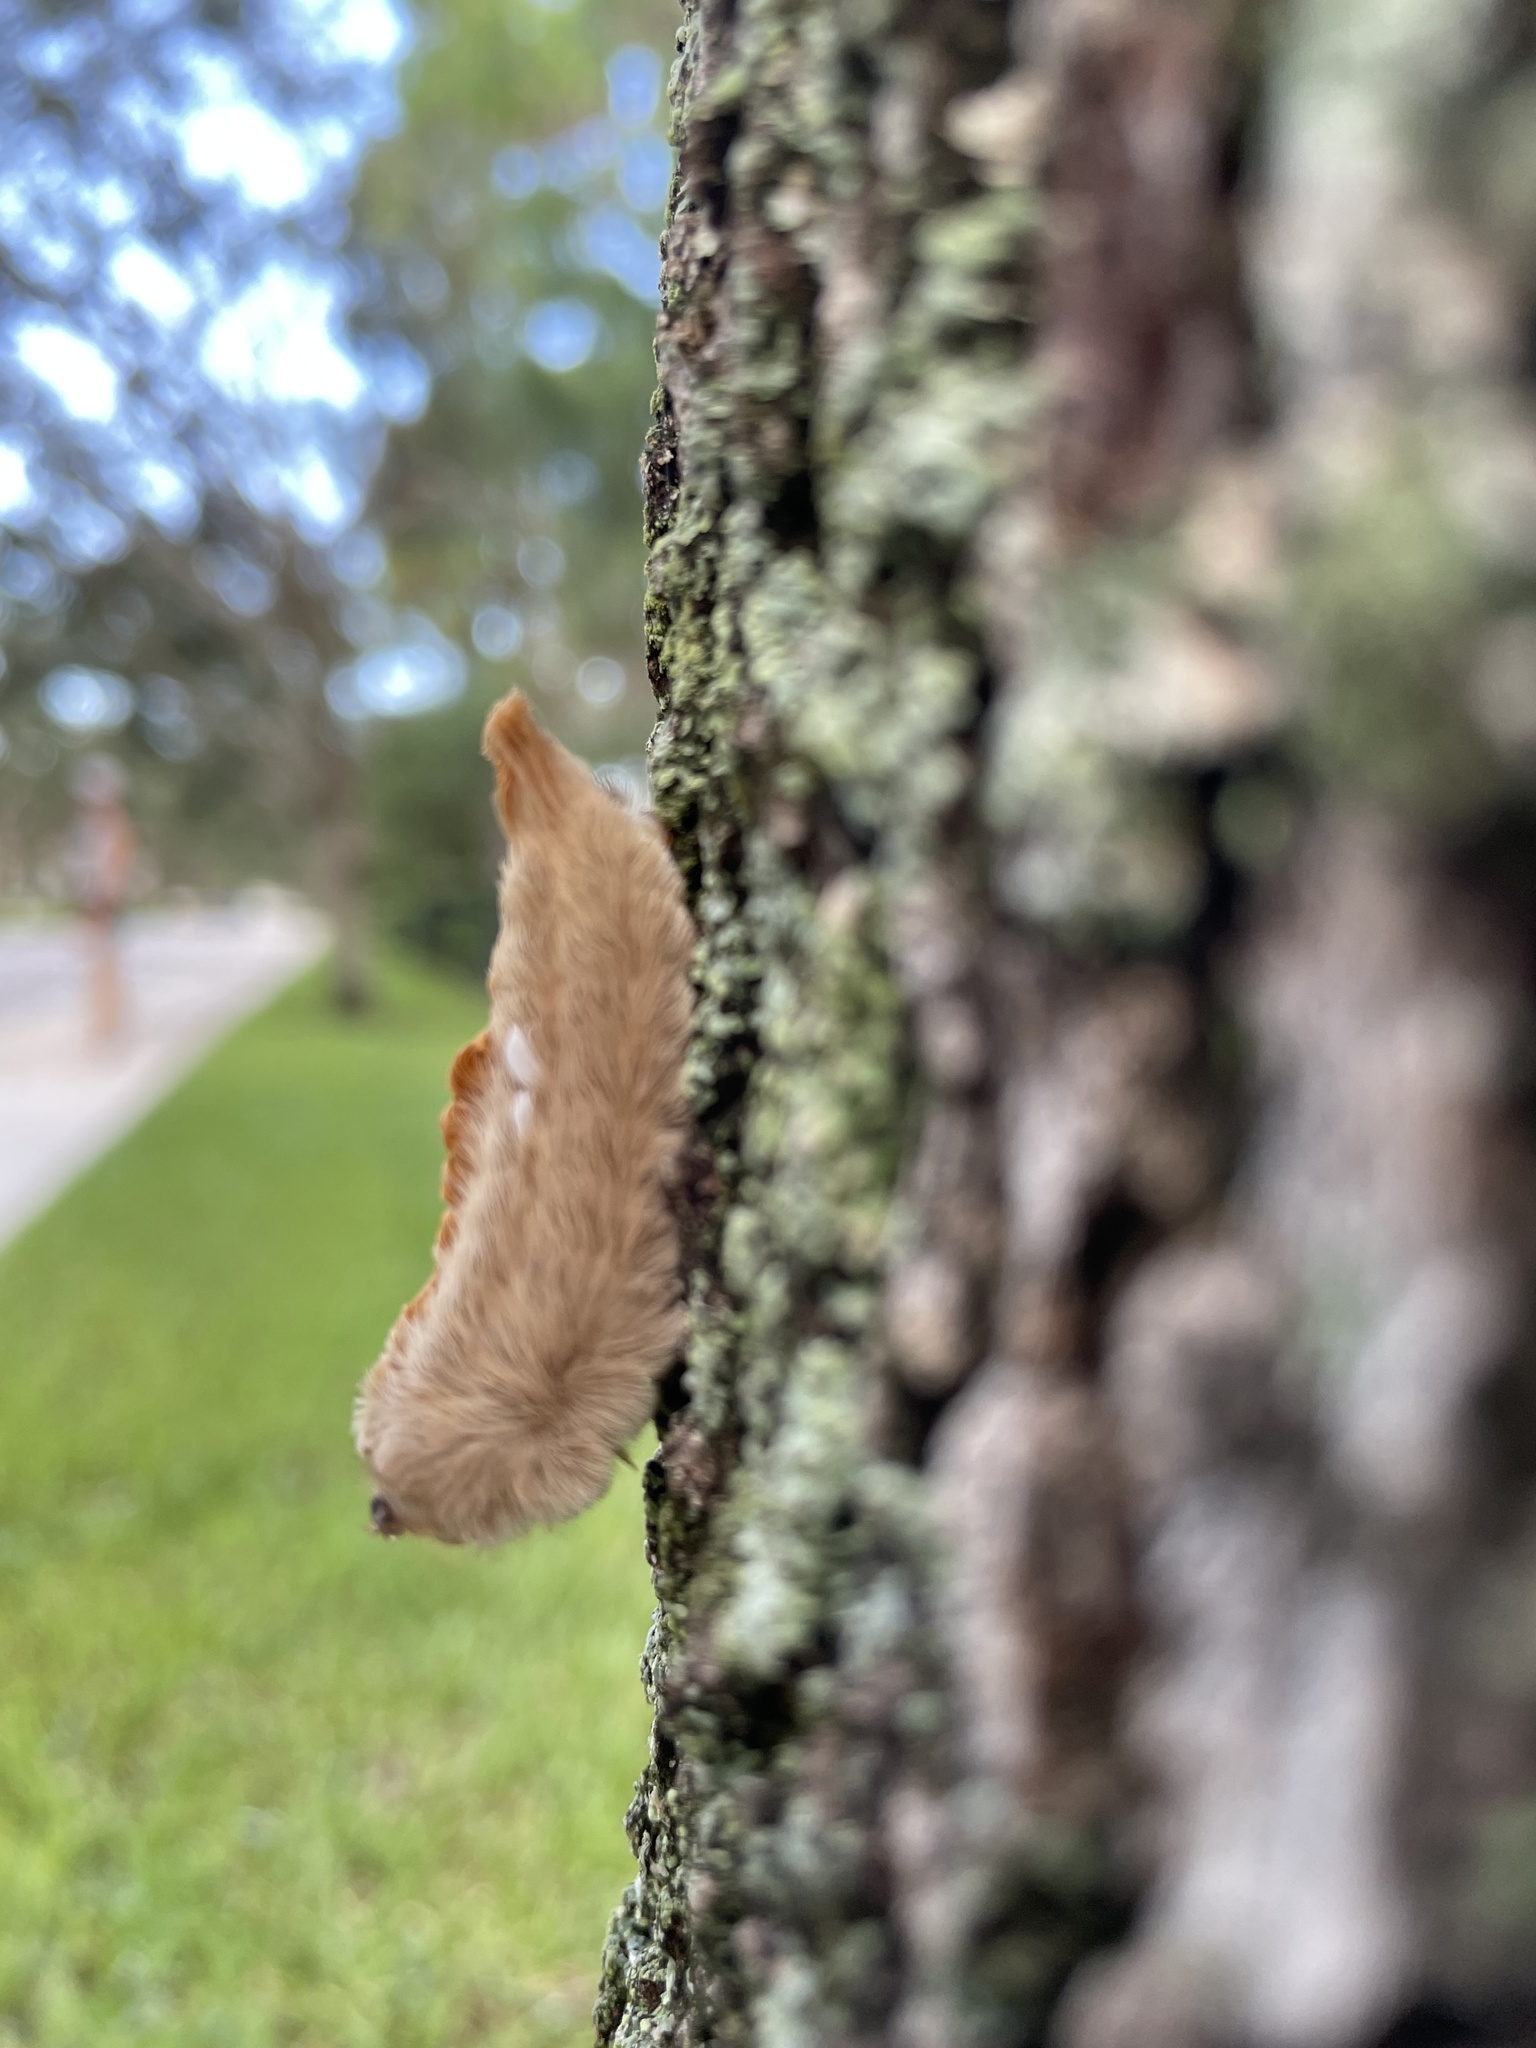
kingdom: Animalia
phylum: Arthropoda
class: Insecta
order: Lepidoptera
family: Megalopygidae
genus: Megalopyge
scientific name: Megalopyge opercularis
